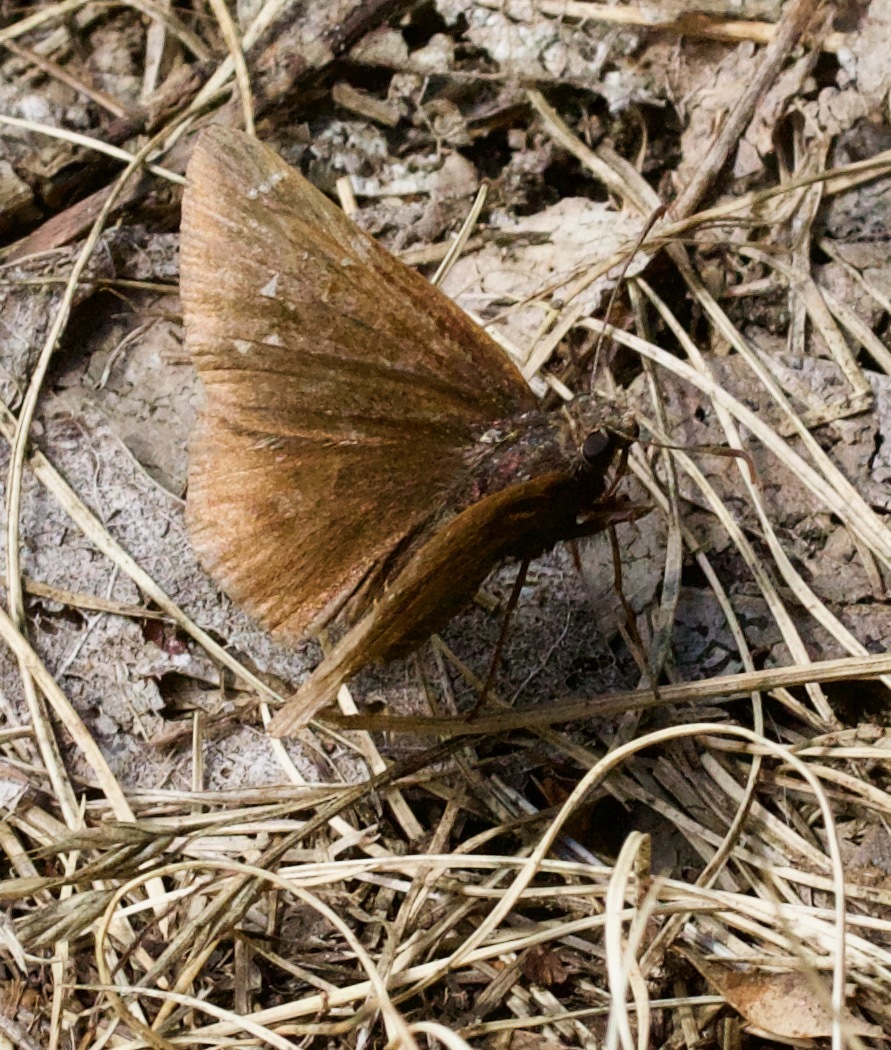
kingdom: Animalia
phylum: Arthropoda
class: Insecta
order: Lepidoptera
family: Hesperiidae
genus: Thorybes
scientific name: Thorybes pylades
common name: Northern cloudywing
